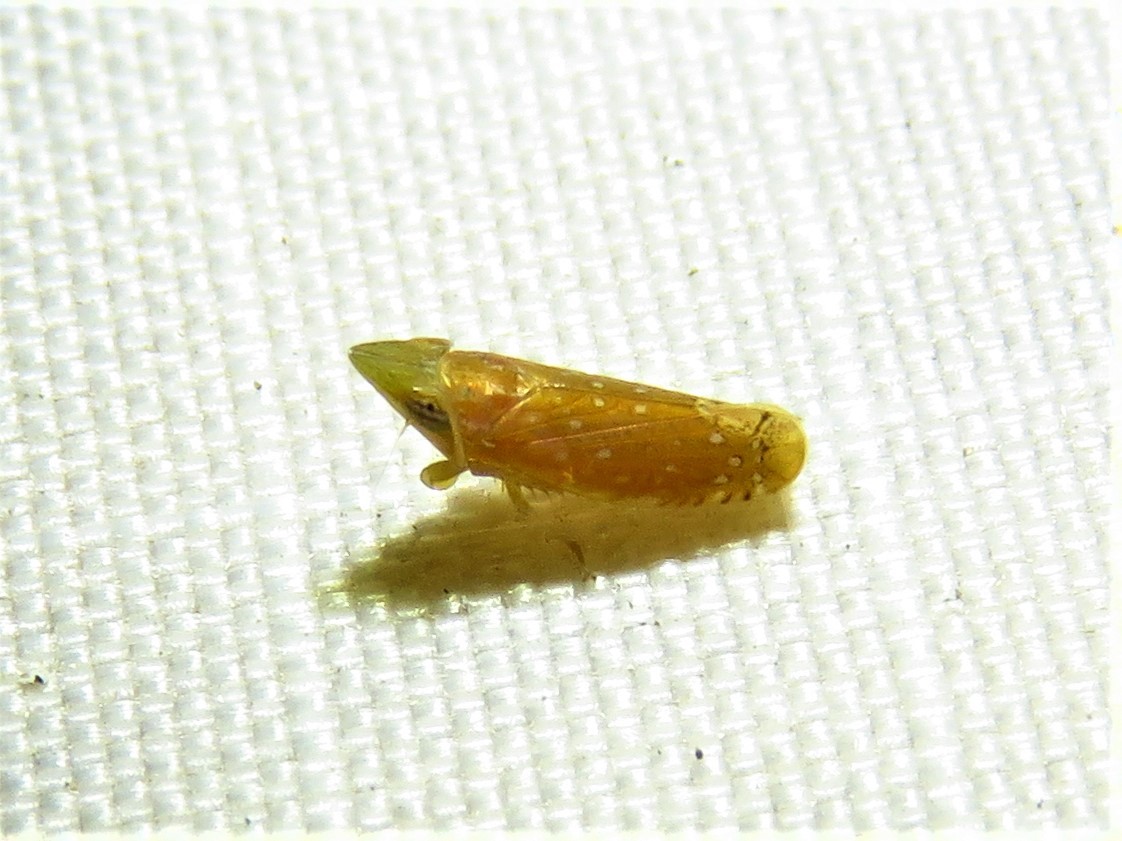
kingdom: Animalia
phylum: Arthropoda
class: Insecta
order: Hemiptera
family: Cicadellidae
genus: Scaphytopius
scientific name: Scaphytopius argutus
